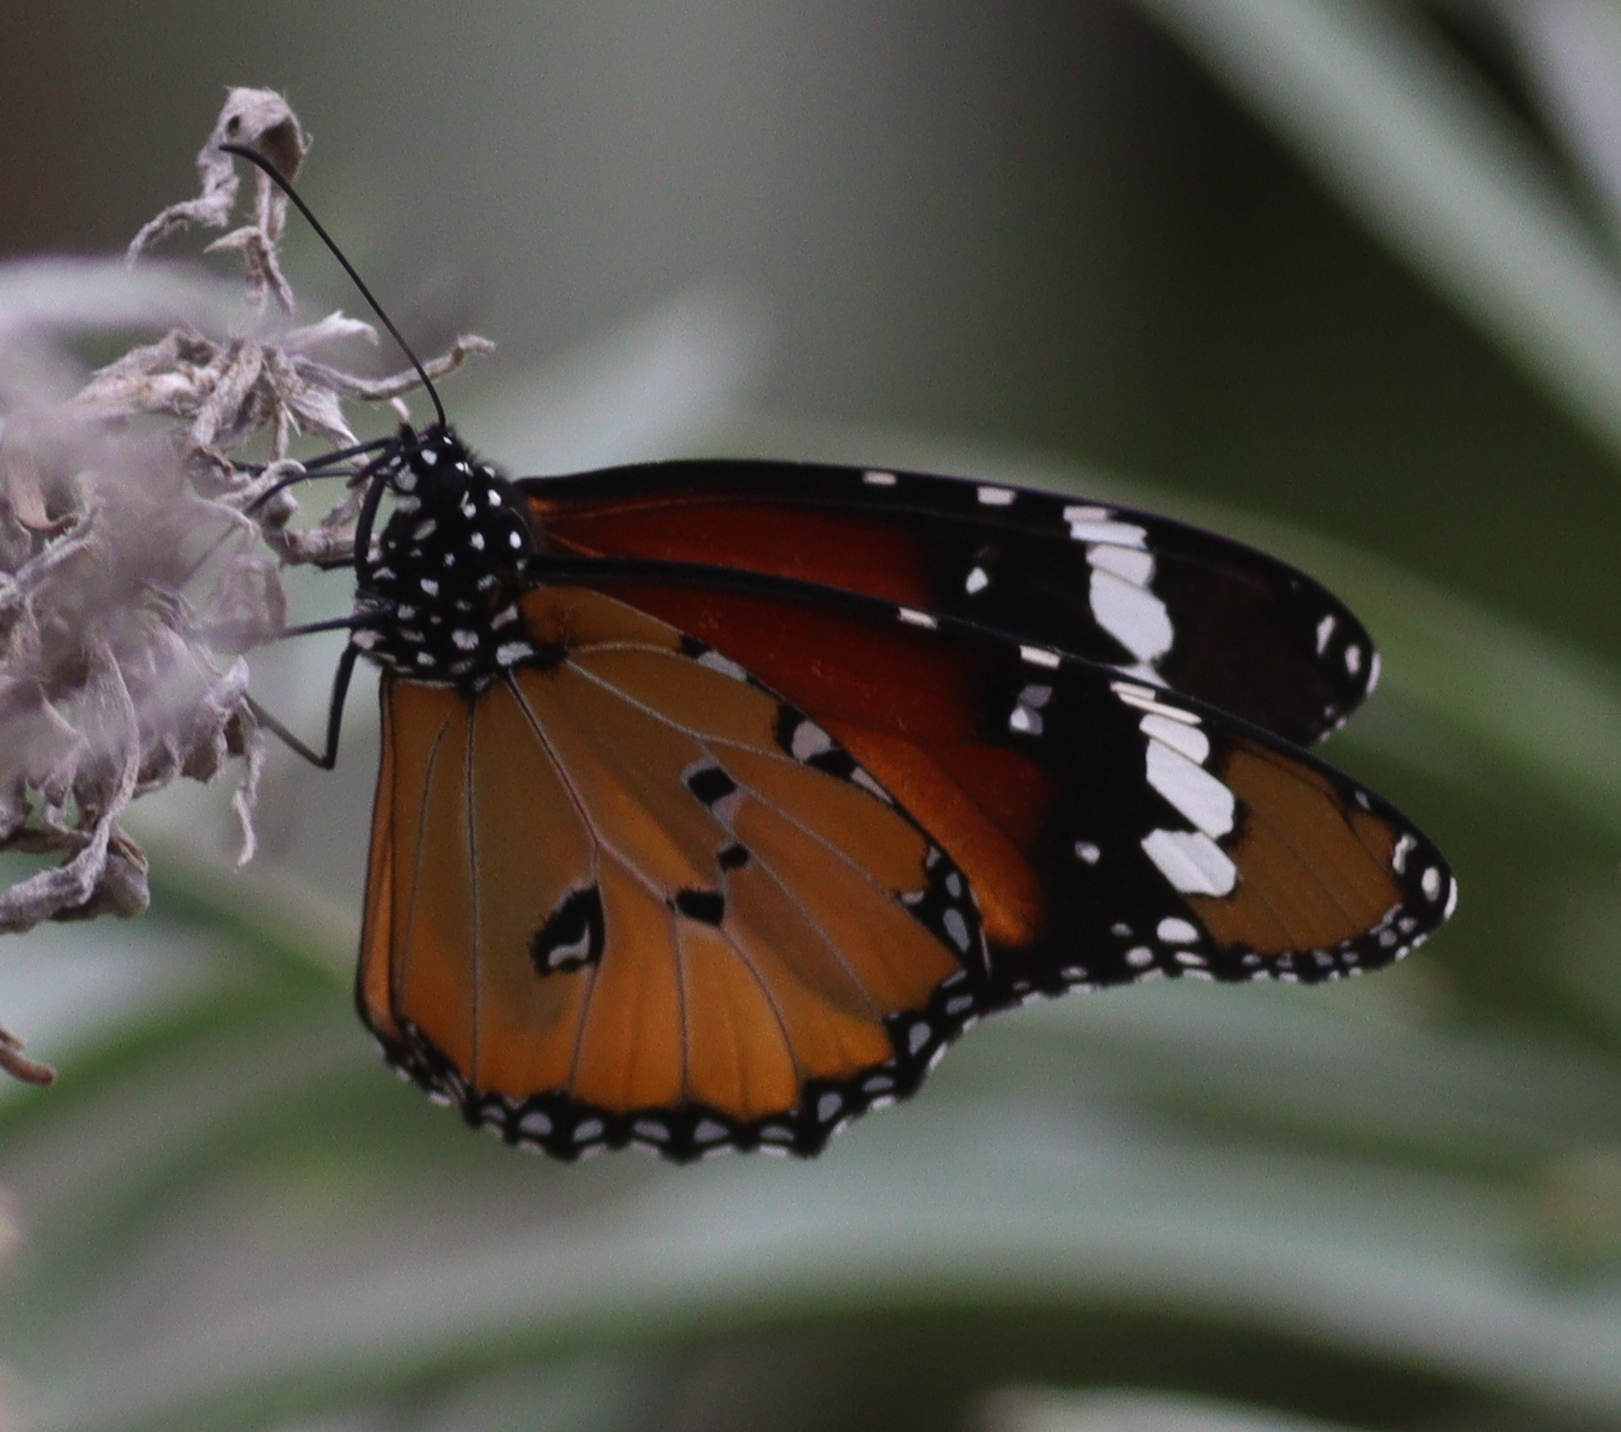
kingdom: Animalia
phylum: Arthropoda
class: Insecta
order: Lepidoptera
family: Nymphalidae
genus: Danaus
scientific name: Danaus chrysippus
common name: Plain tiger
